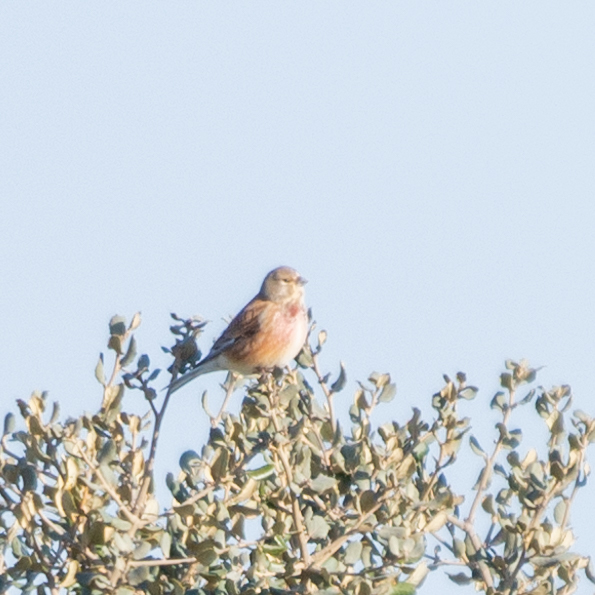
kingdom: Animalia
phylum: Chordata
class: Aves
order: Passeriformes
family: Fringillidae
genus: Linaria
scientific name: Linaria cannabina
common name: Common linnet
